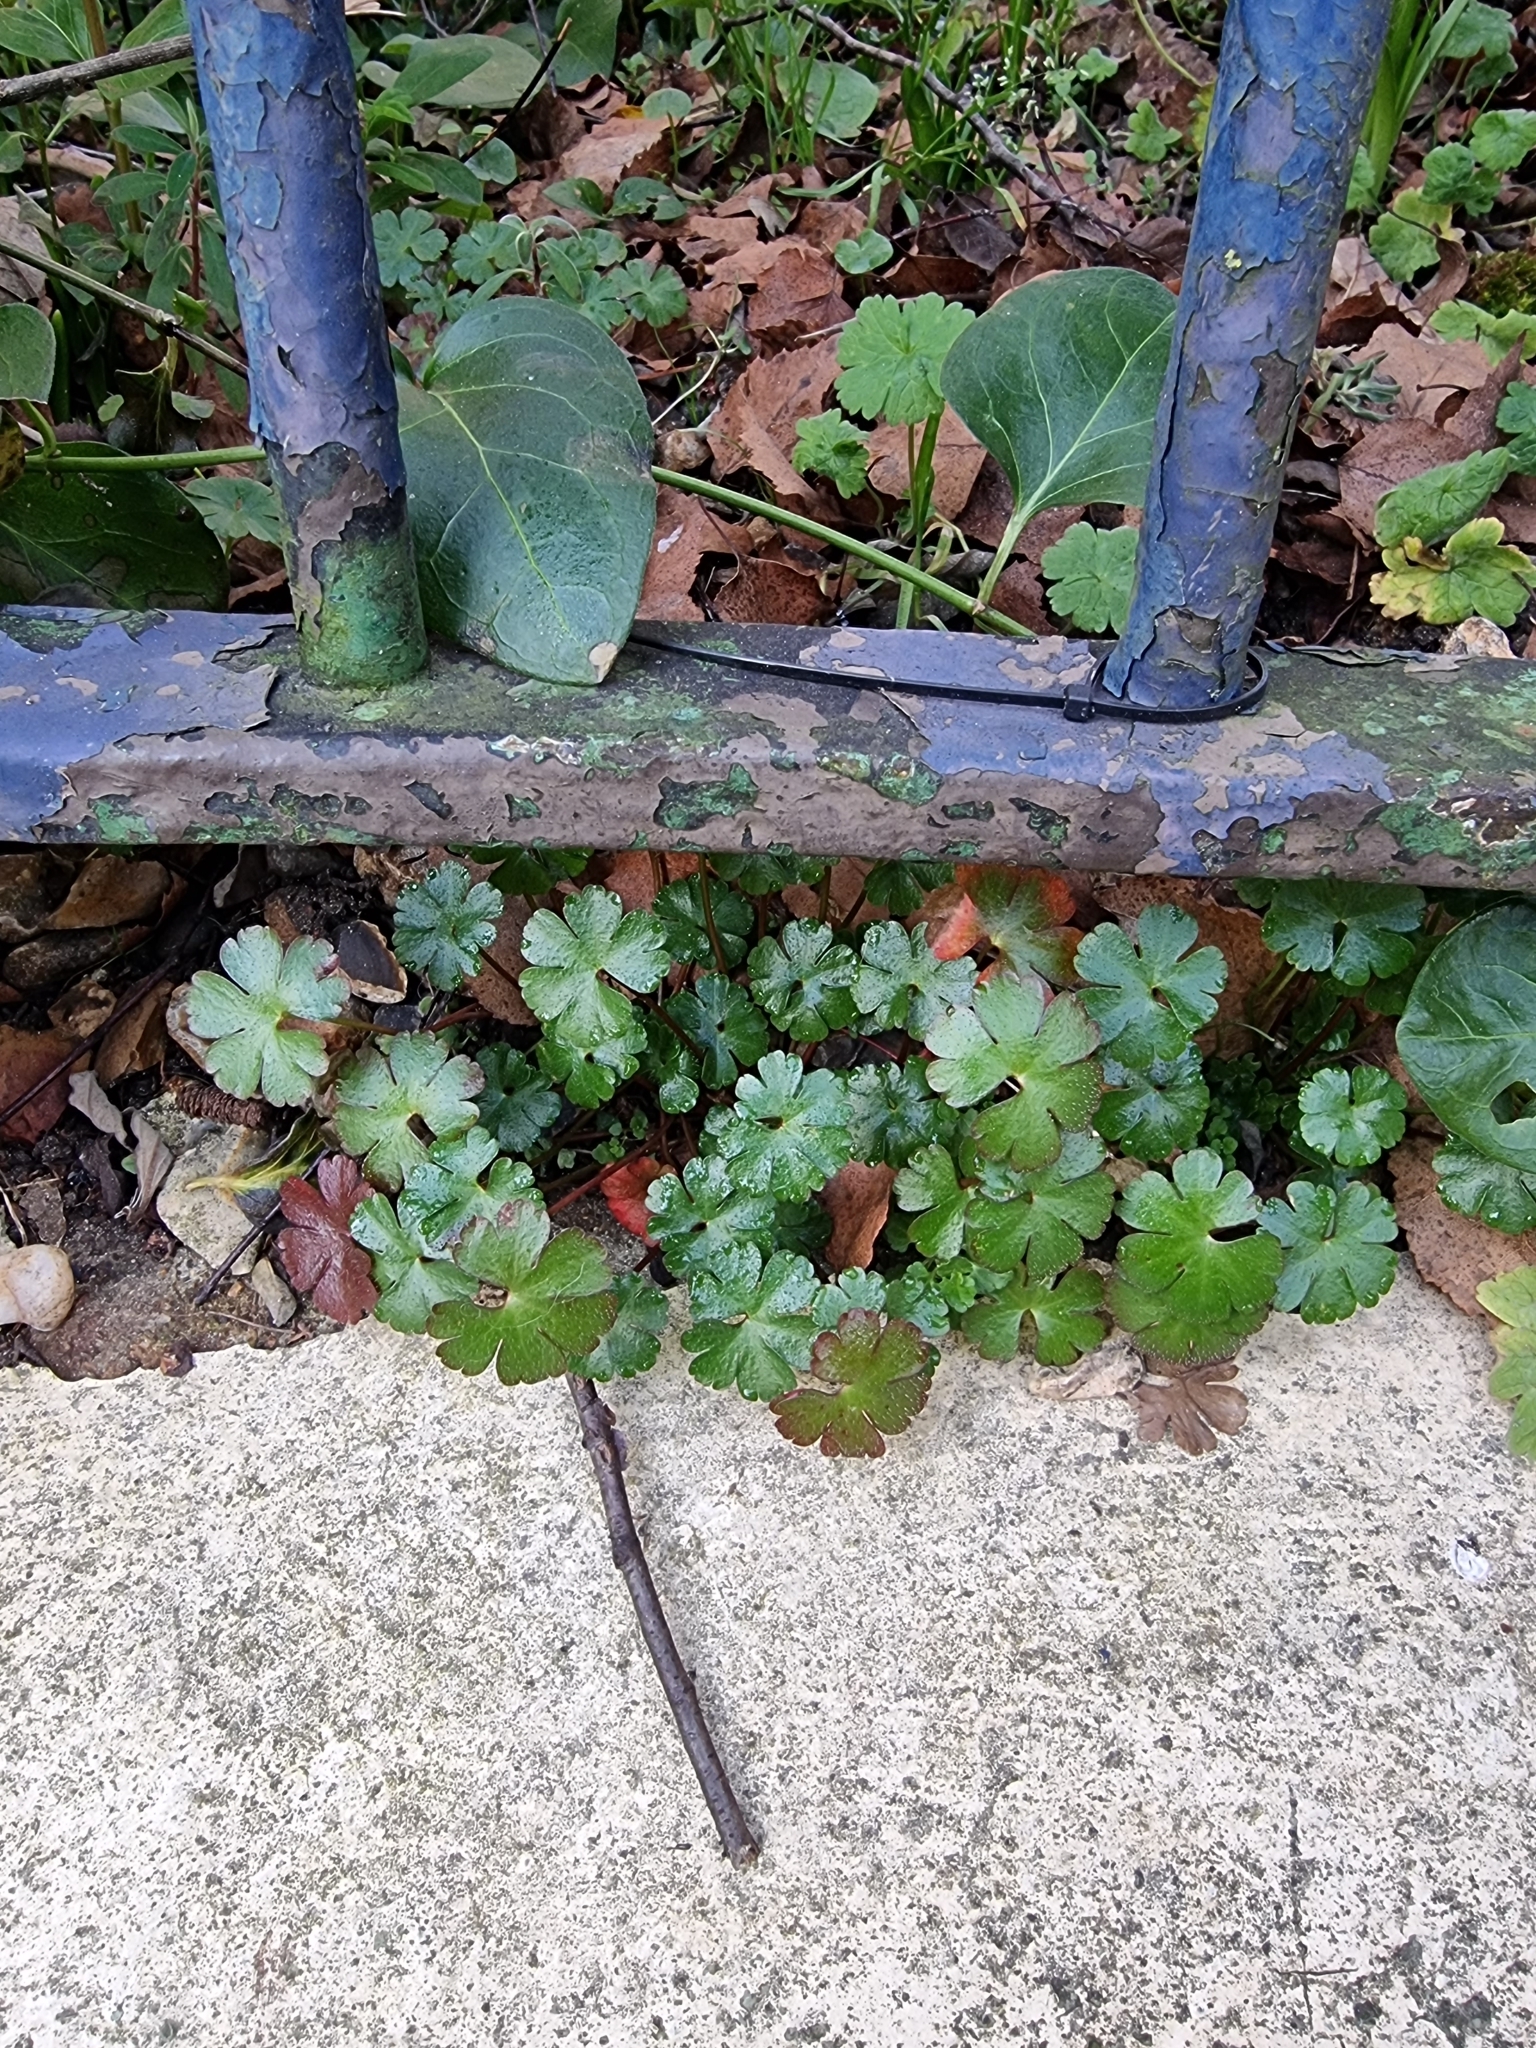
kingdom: Plantae
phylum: Tracheophyta
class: Magnoliopsida
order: Geraniales
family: Geraniaceae
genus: Geranium
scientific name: Geranium lucidum
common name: Shining crane's-bill
